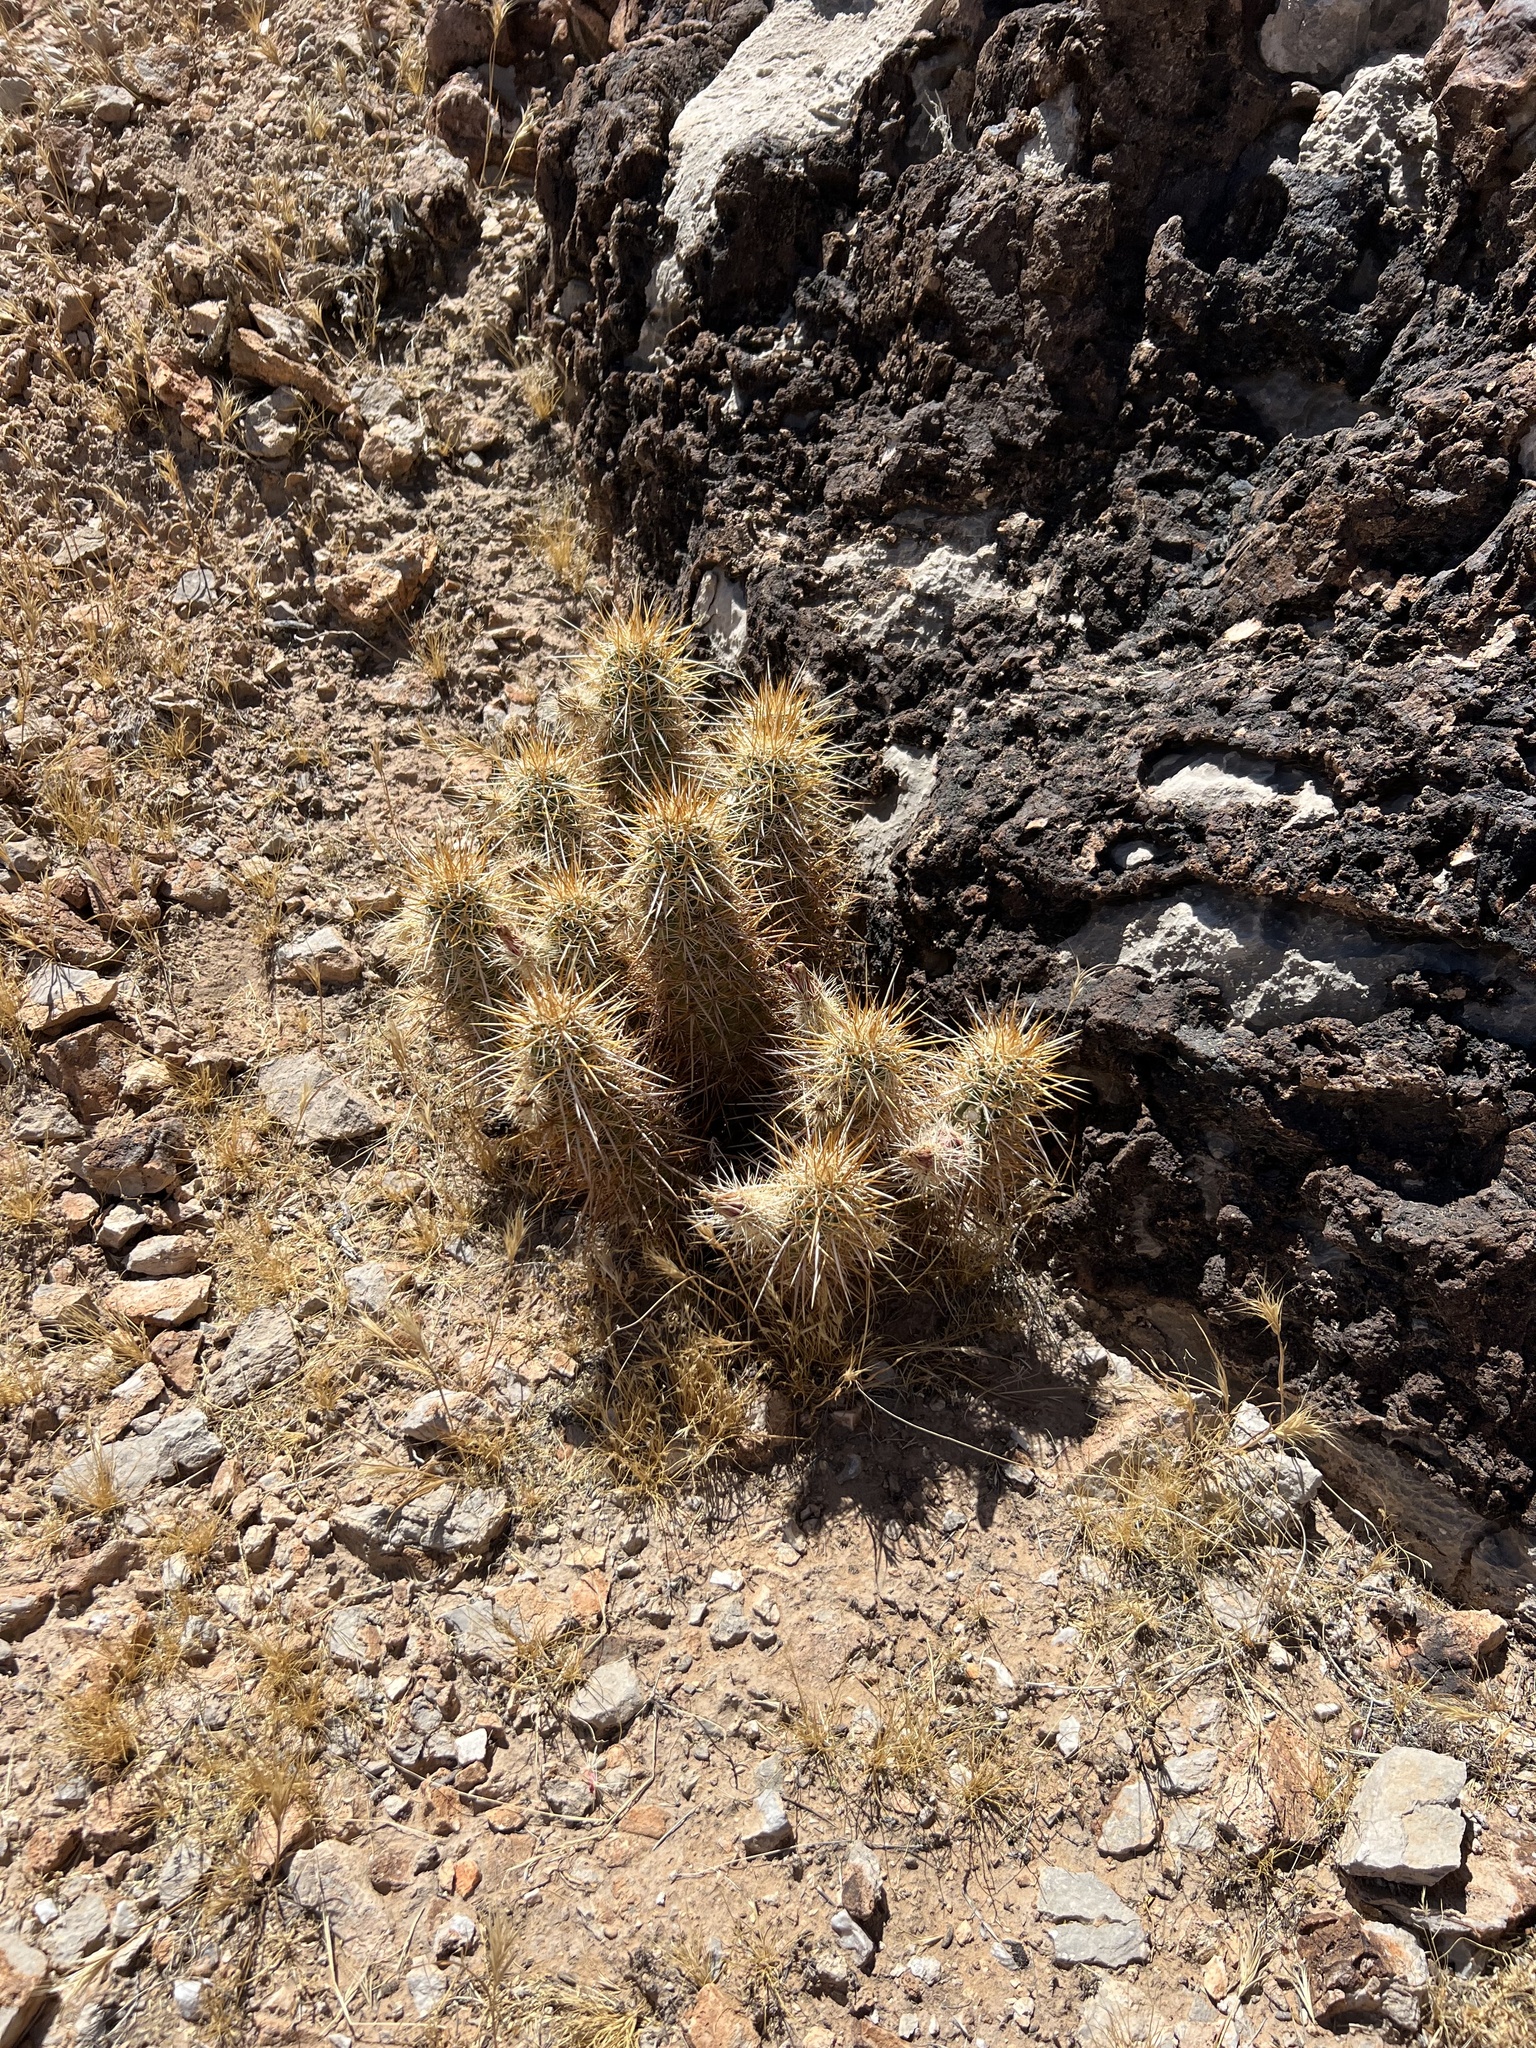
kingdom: Plantae
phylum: Tracheophyta
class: Magnoliopsida
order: Caryophyllales
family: Cactaceae
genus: Echinocereus
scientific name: Echinocereus engelmannii
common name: Engelmann's hedgehog cactus
